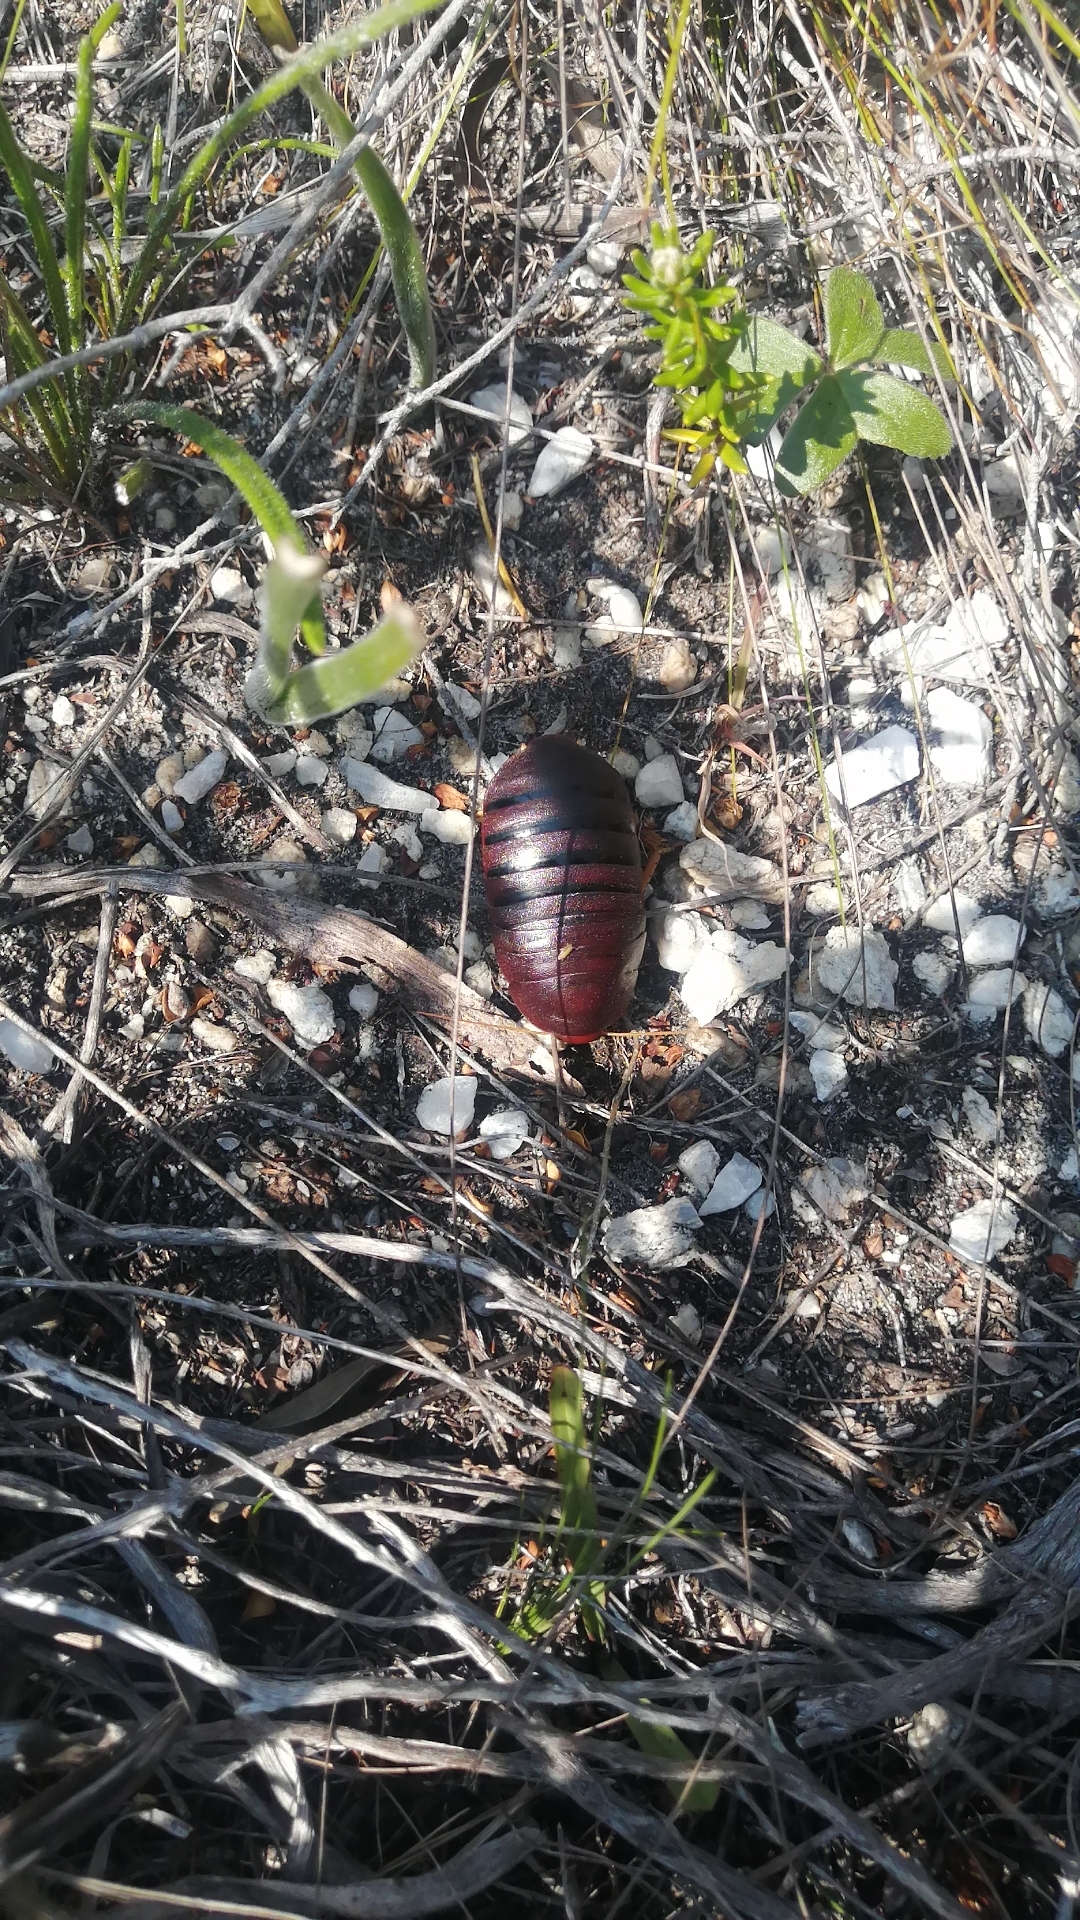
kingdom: Animalia
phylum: Arthropoda
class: Insecta
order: Blattodea
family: Blaberidae
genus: Aptera
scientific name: Aptera fusca
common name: Cape mountain cockroach
